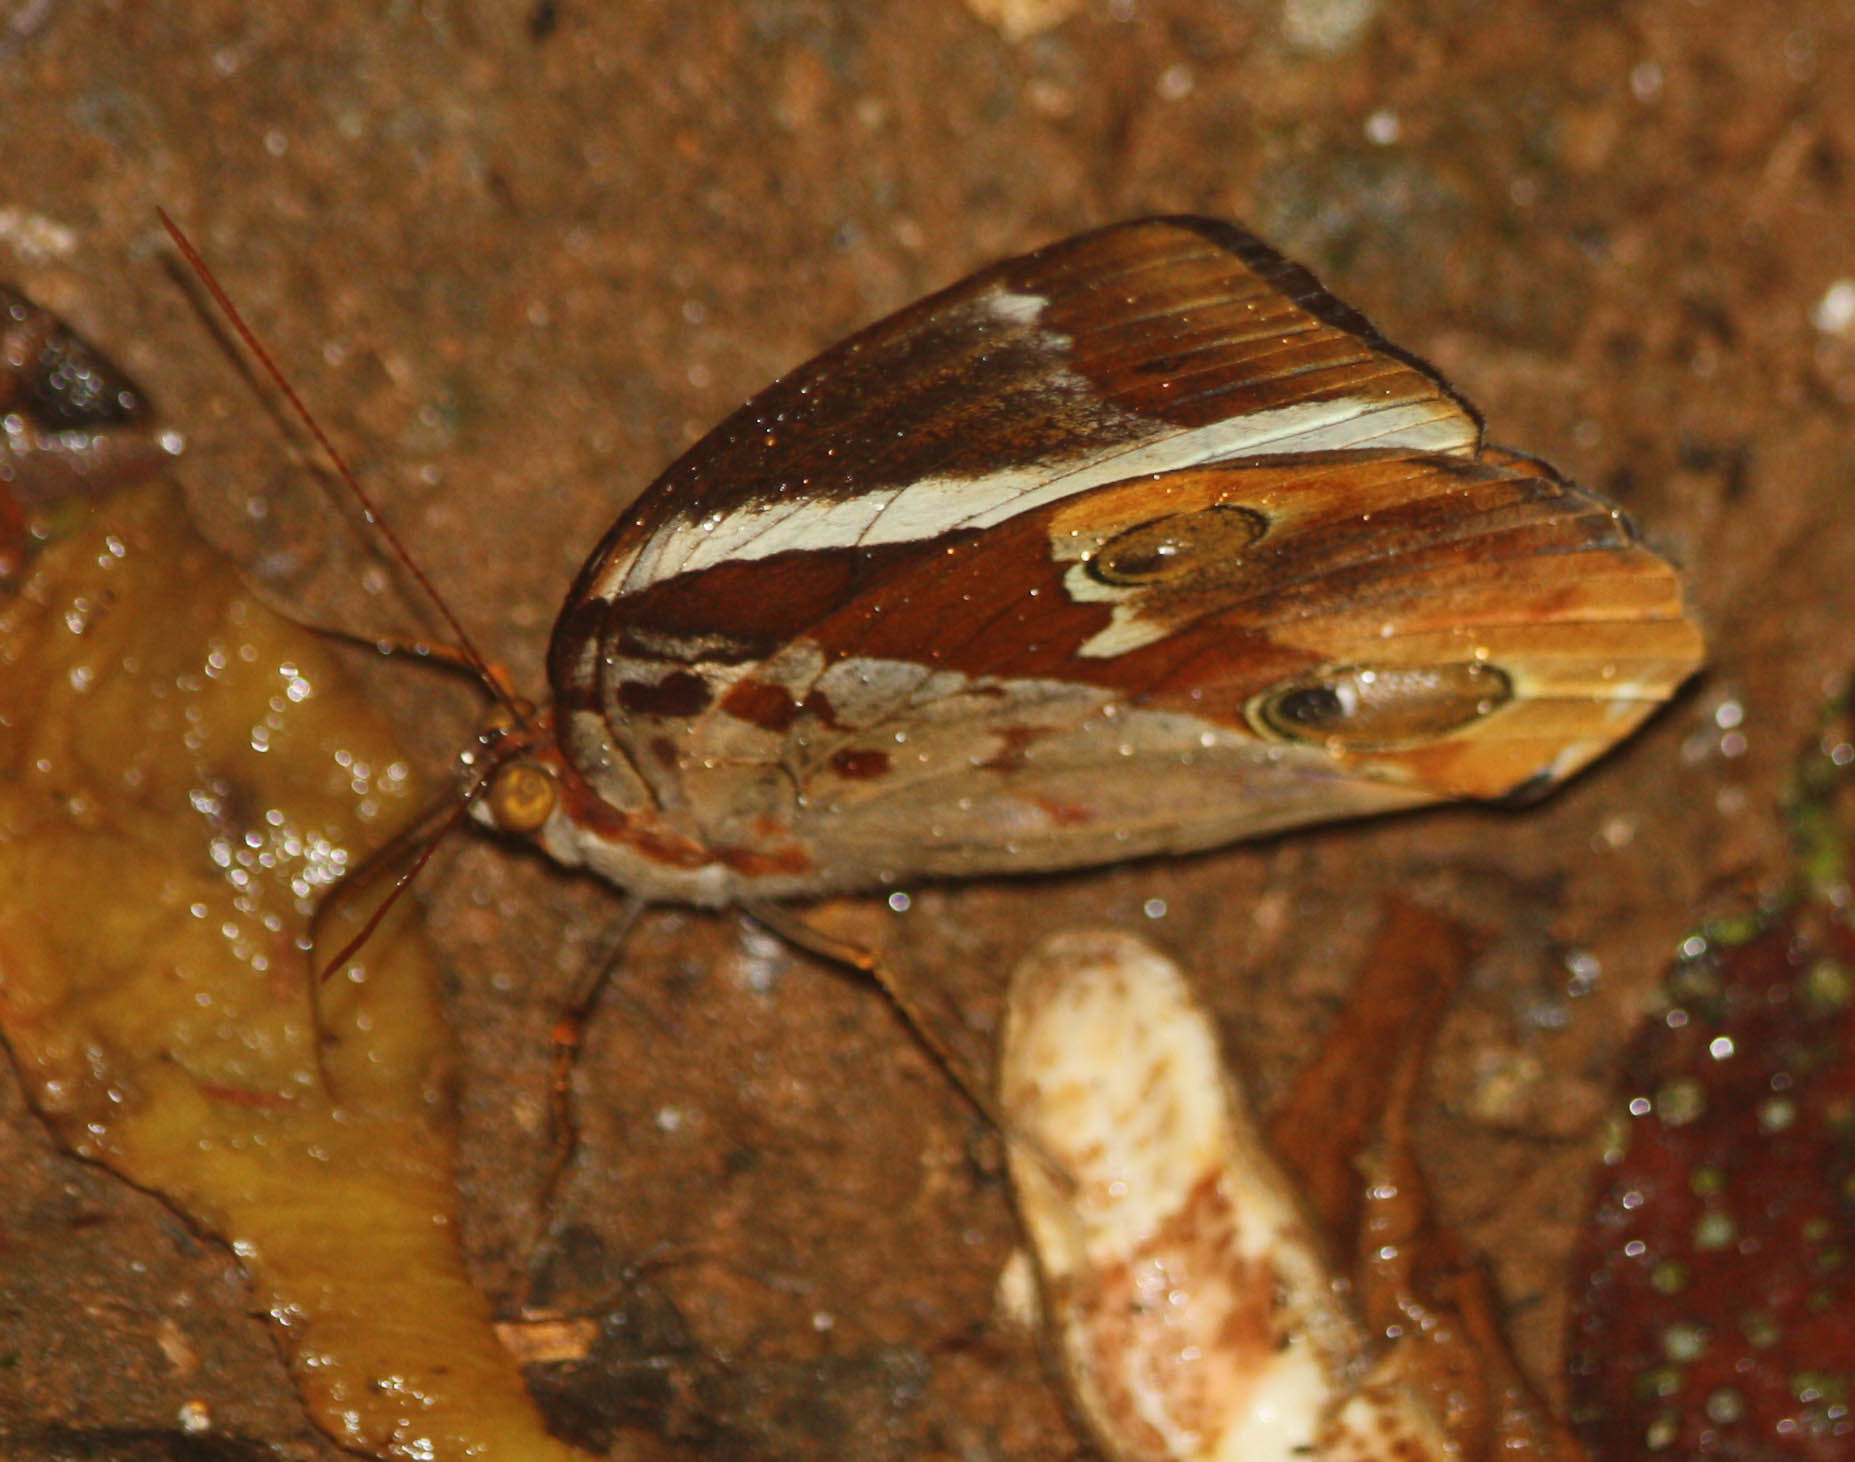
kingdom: Animalia
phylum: Arthropoda
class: Insecta
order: Lepidoptera
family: Nymphalidae
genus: Thauria
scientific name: Thauria lathy
